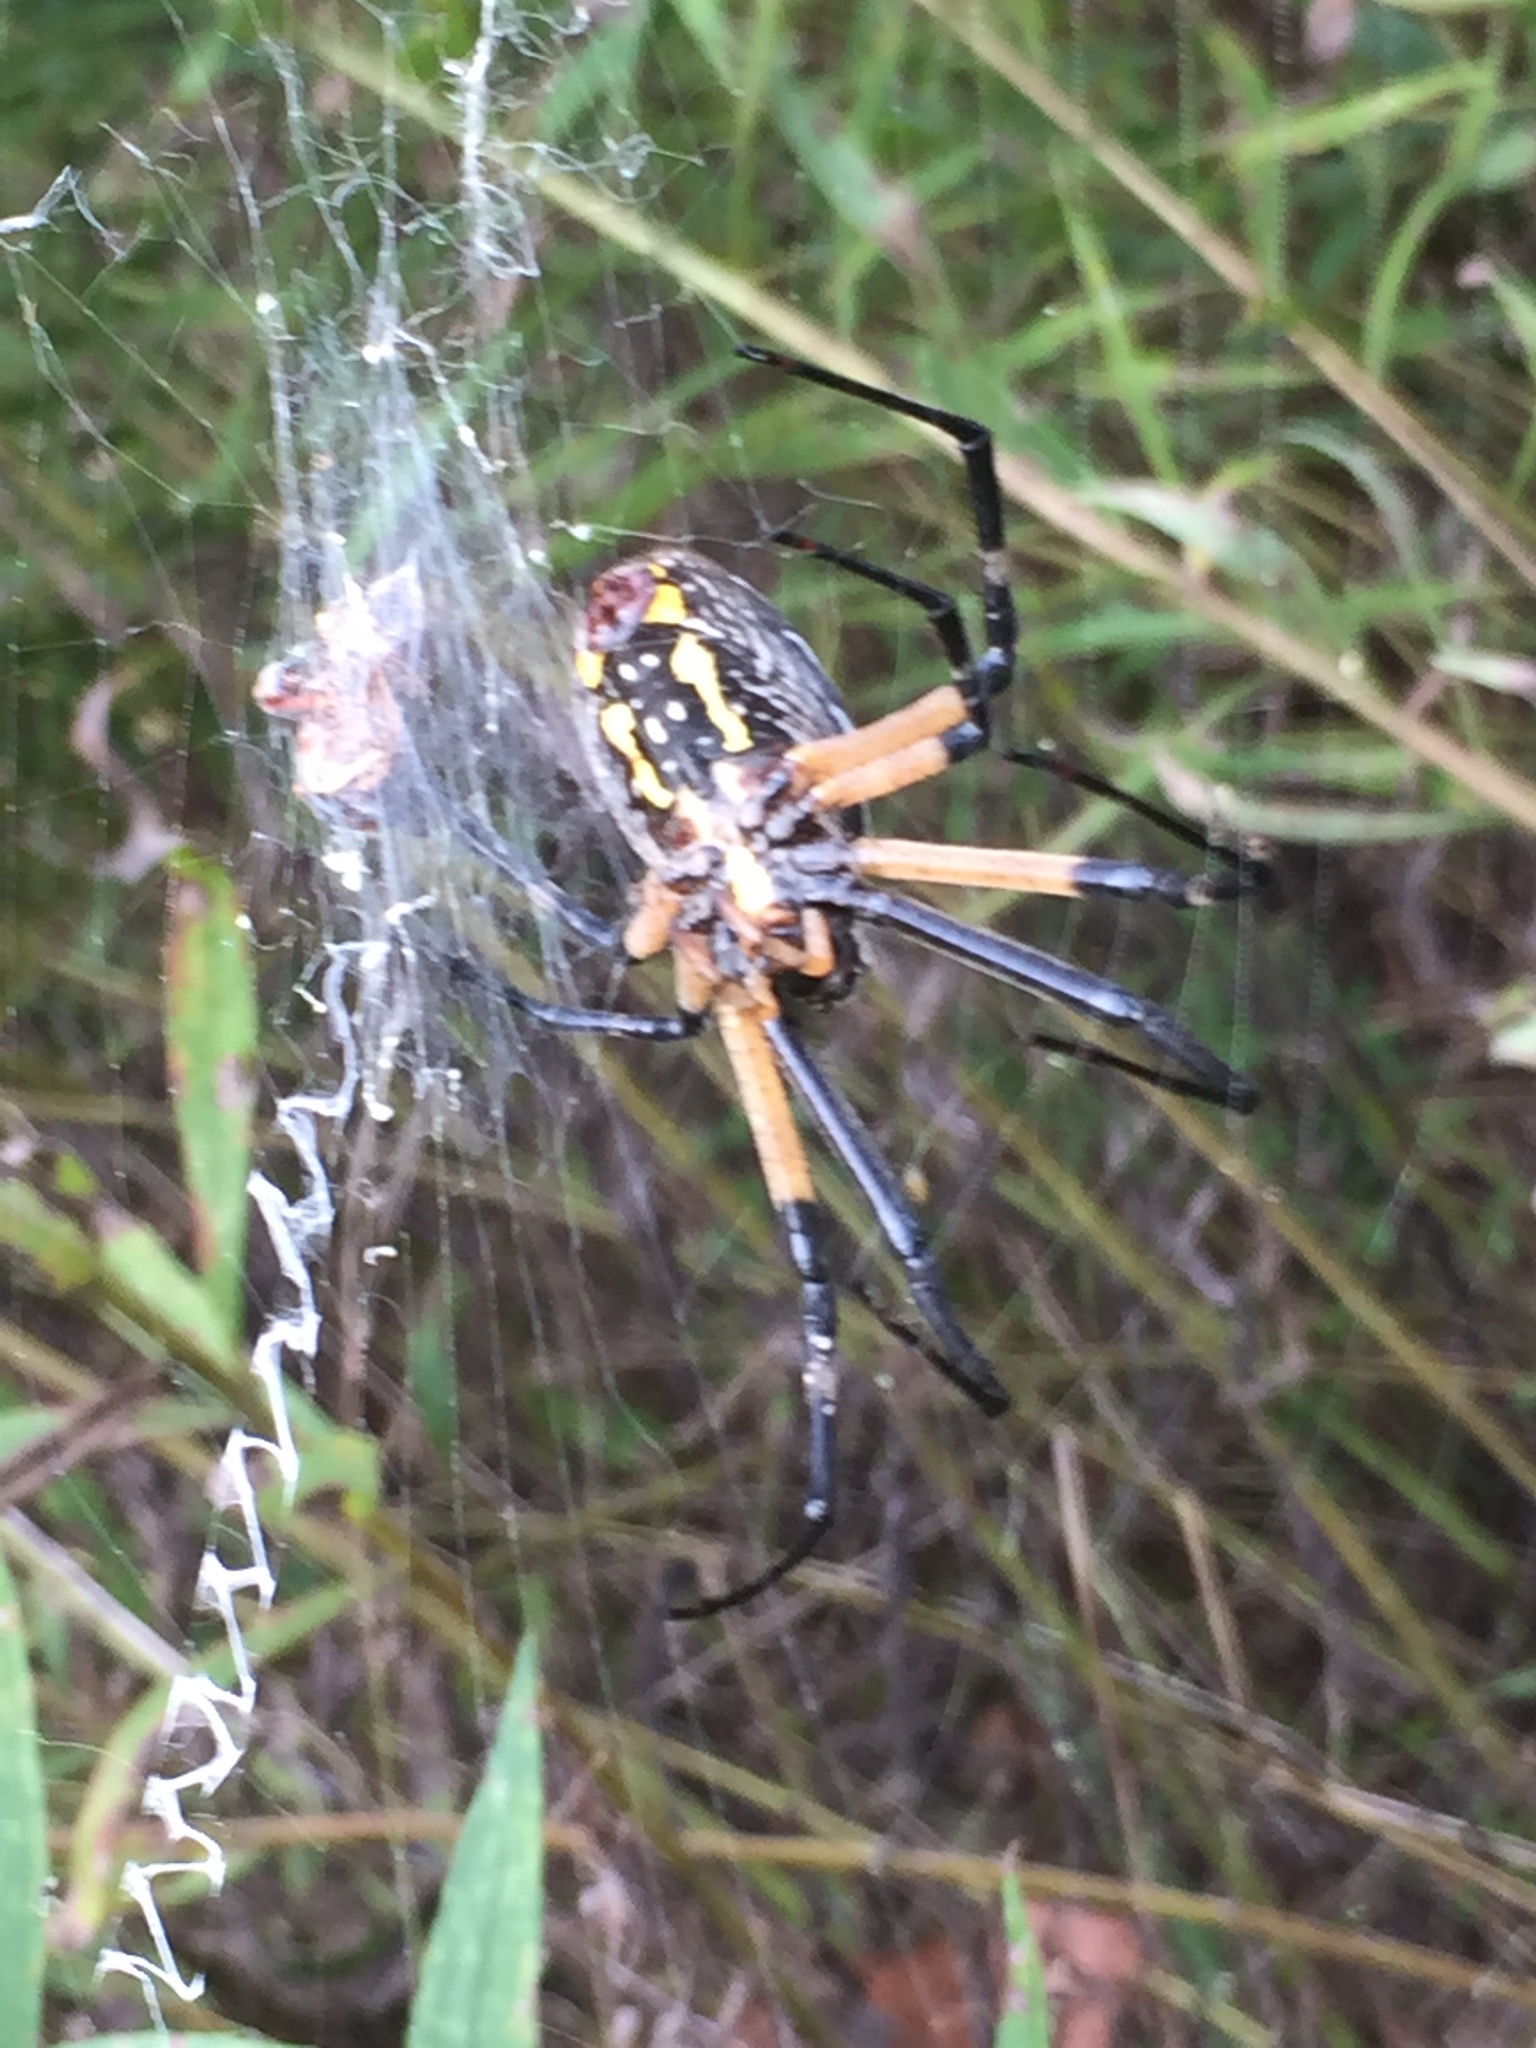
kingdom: Animalia
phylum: Arthropoda
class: Arachnida
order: Araneae
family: Araneidae
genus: Argiope
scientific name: Argiope aurantia
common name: Orb weavers
